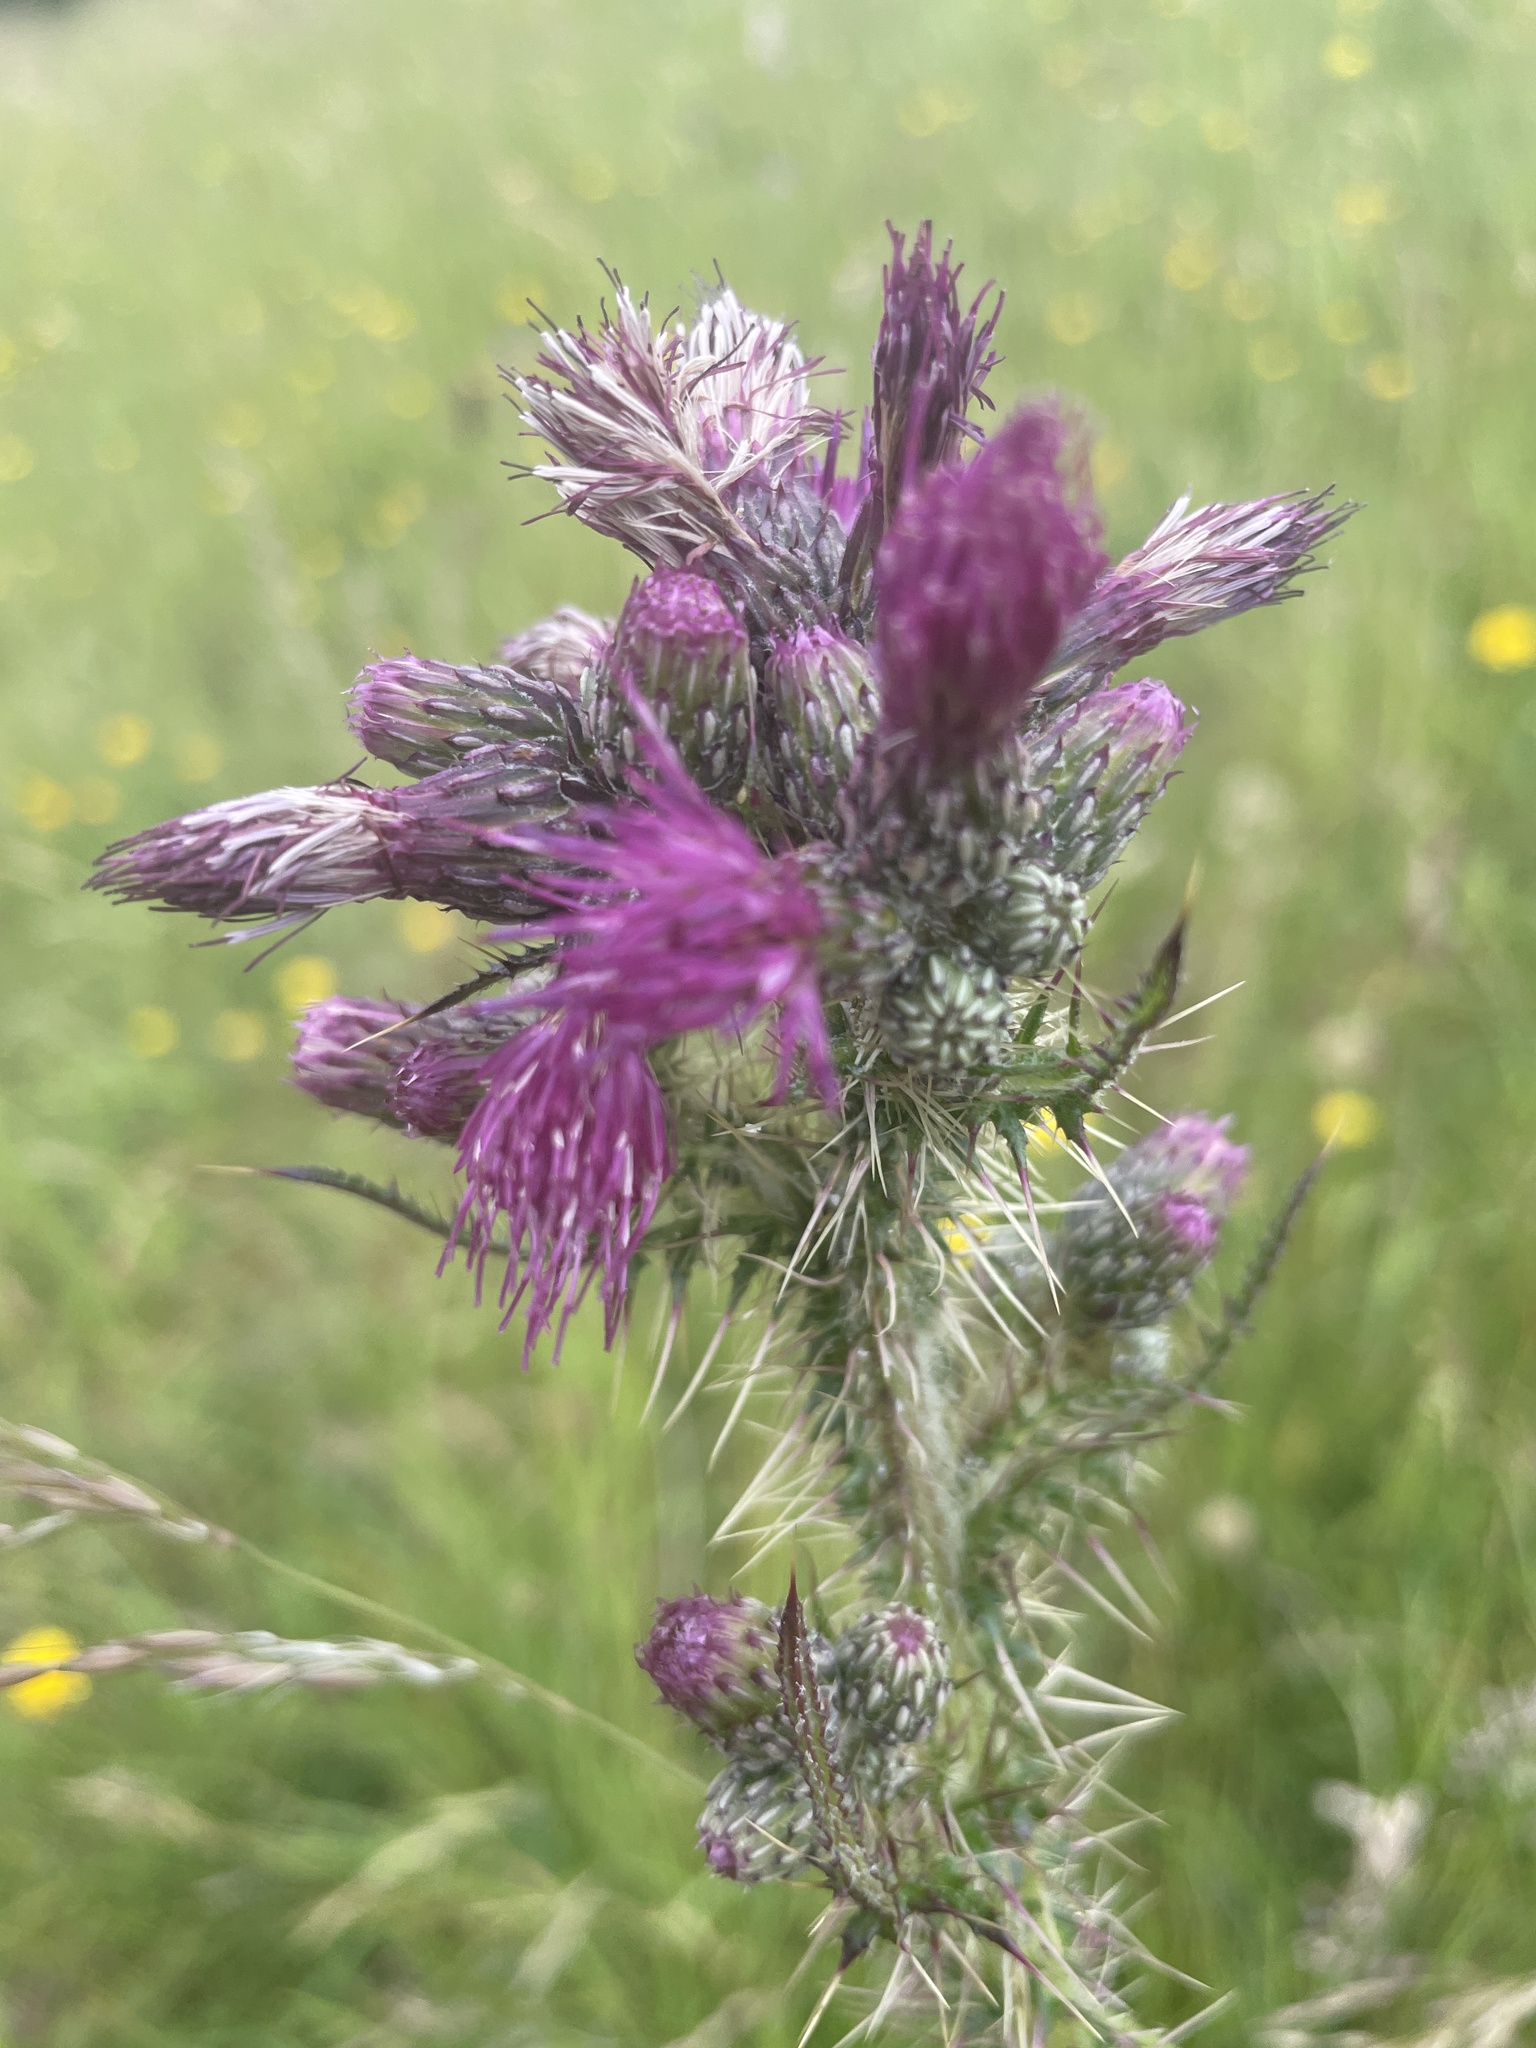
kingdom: Plantae
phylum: Tracheophyta
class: Magnoliopsida
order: Asterales
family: Asteraceae
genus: Cirsium
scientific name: Cirsium palustre
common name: Marsh thistle
